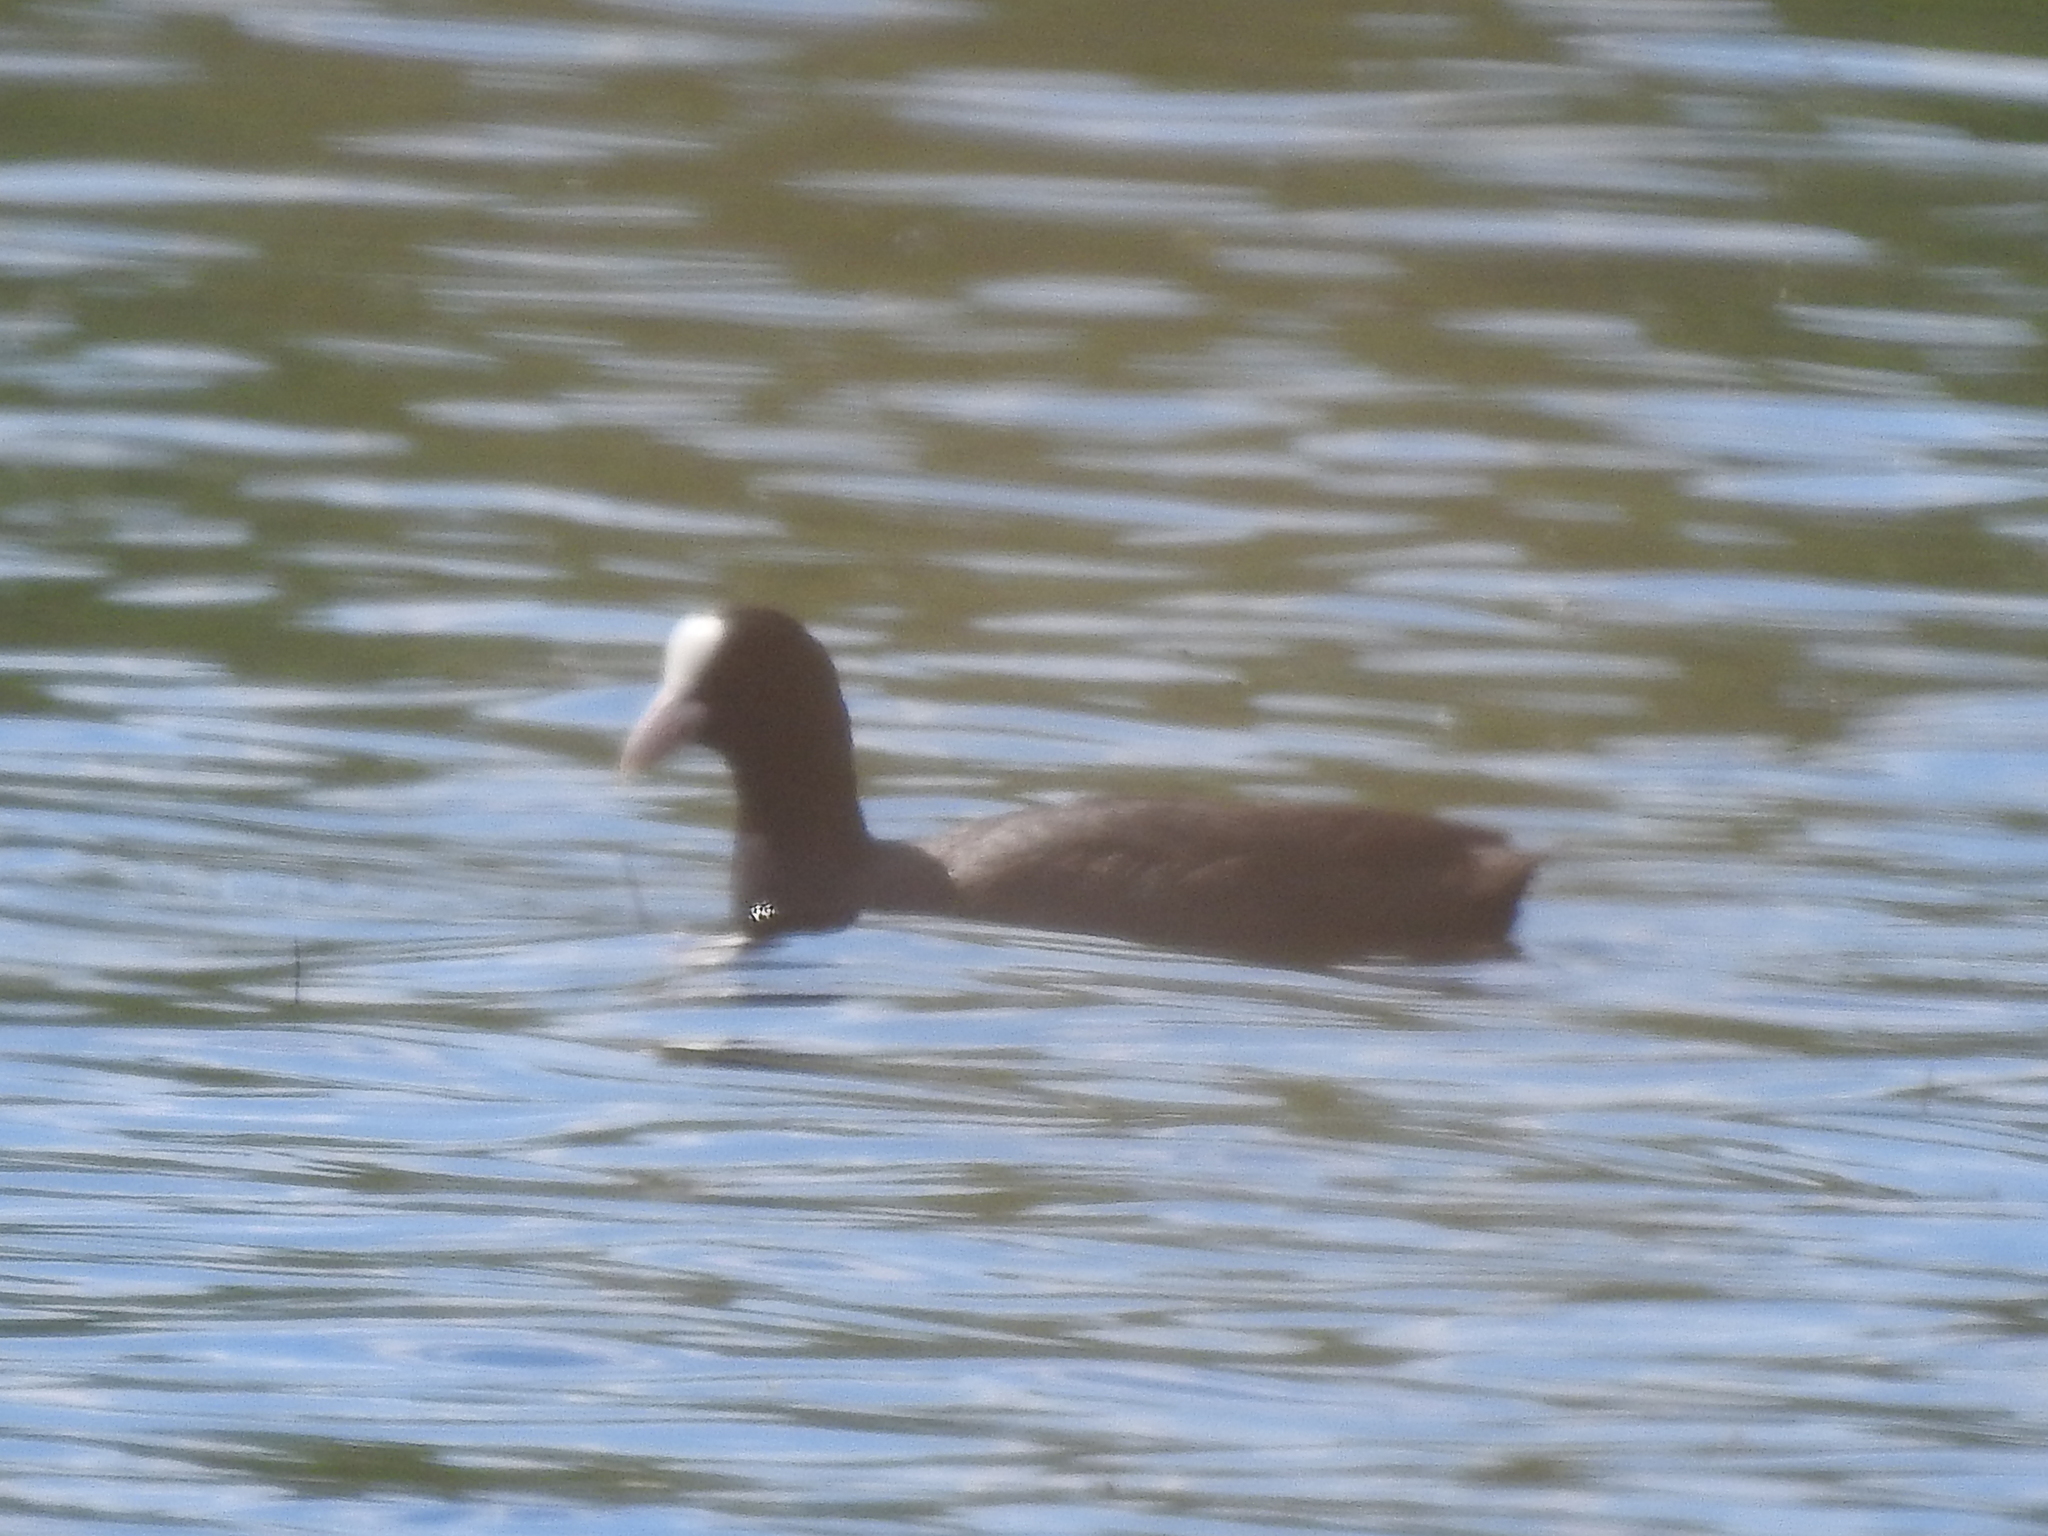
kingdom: Animalia
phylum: Chordata
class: Aves
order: Gruiformes
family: Rallidae
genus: Fulica
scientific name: Fulica atra
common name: Eurasian coot
